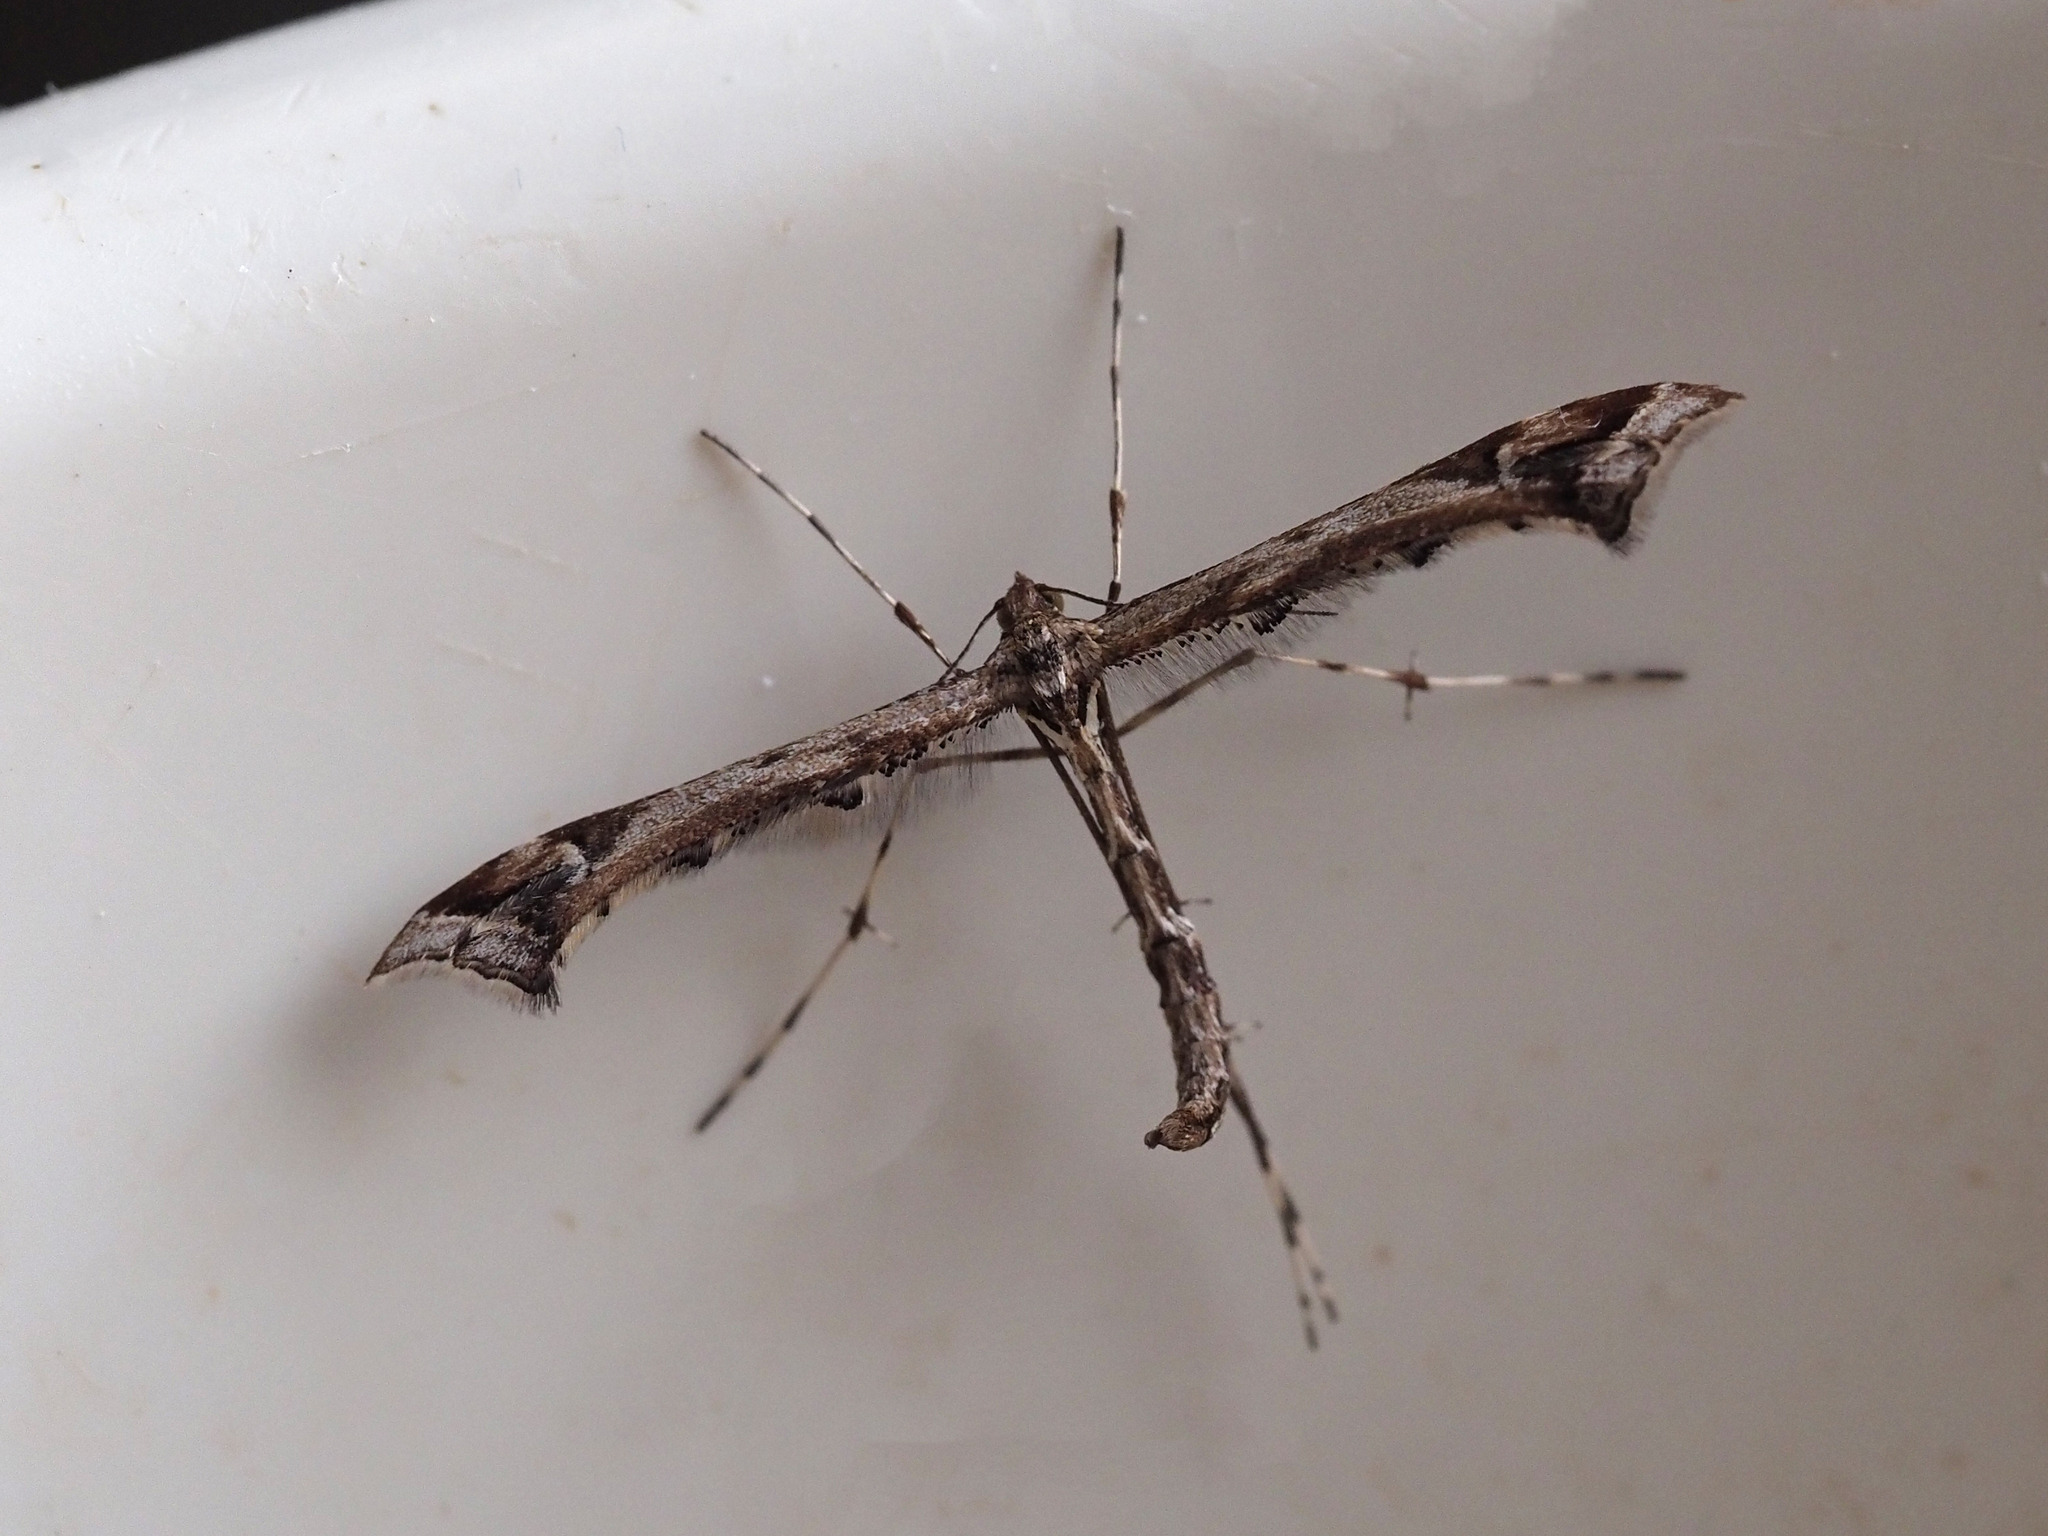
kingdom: Animalia
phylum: Arthropoda
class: Insecta
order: Lepidoptera
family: Pterophoridae
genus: Amblyptilia
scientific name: Amblyptilia acanthadactyla
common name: Beautiful plume
